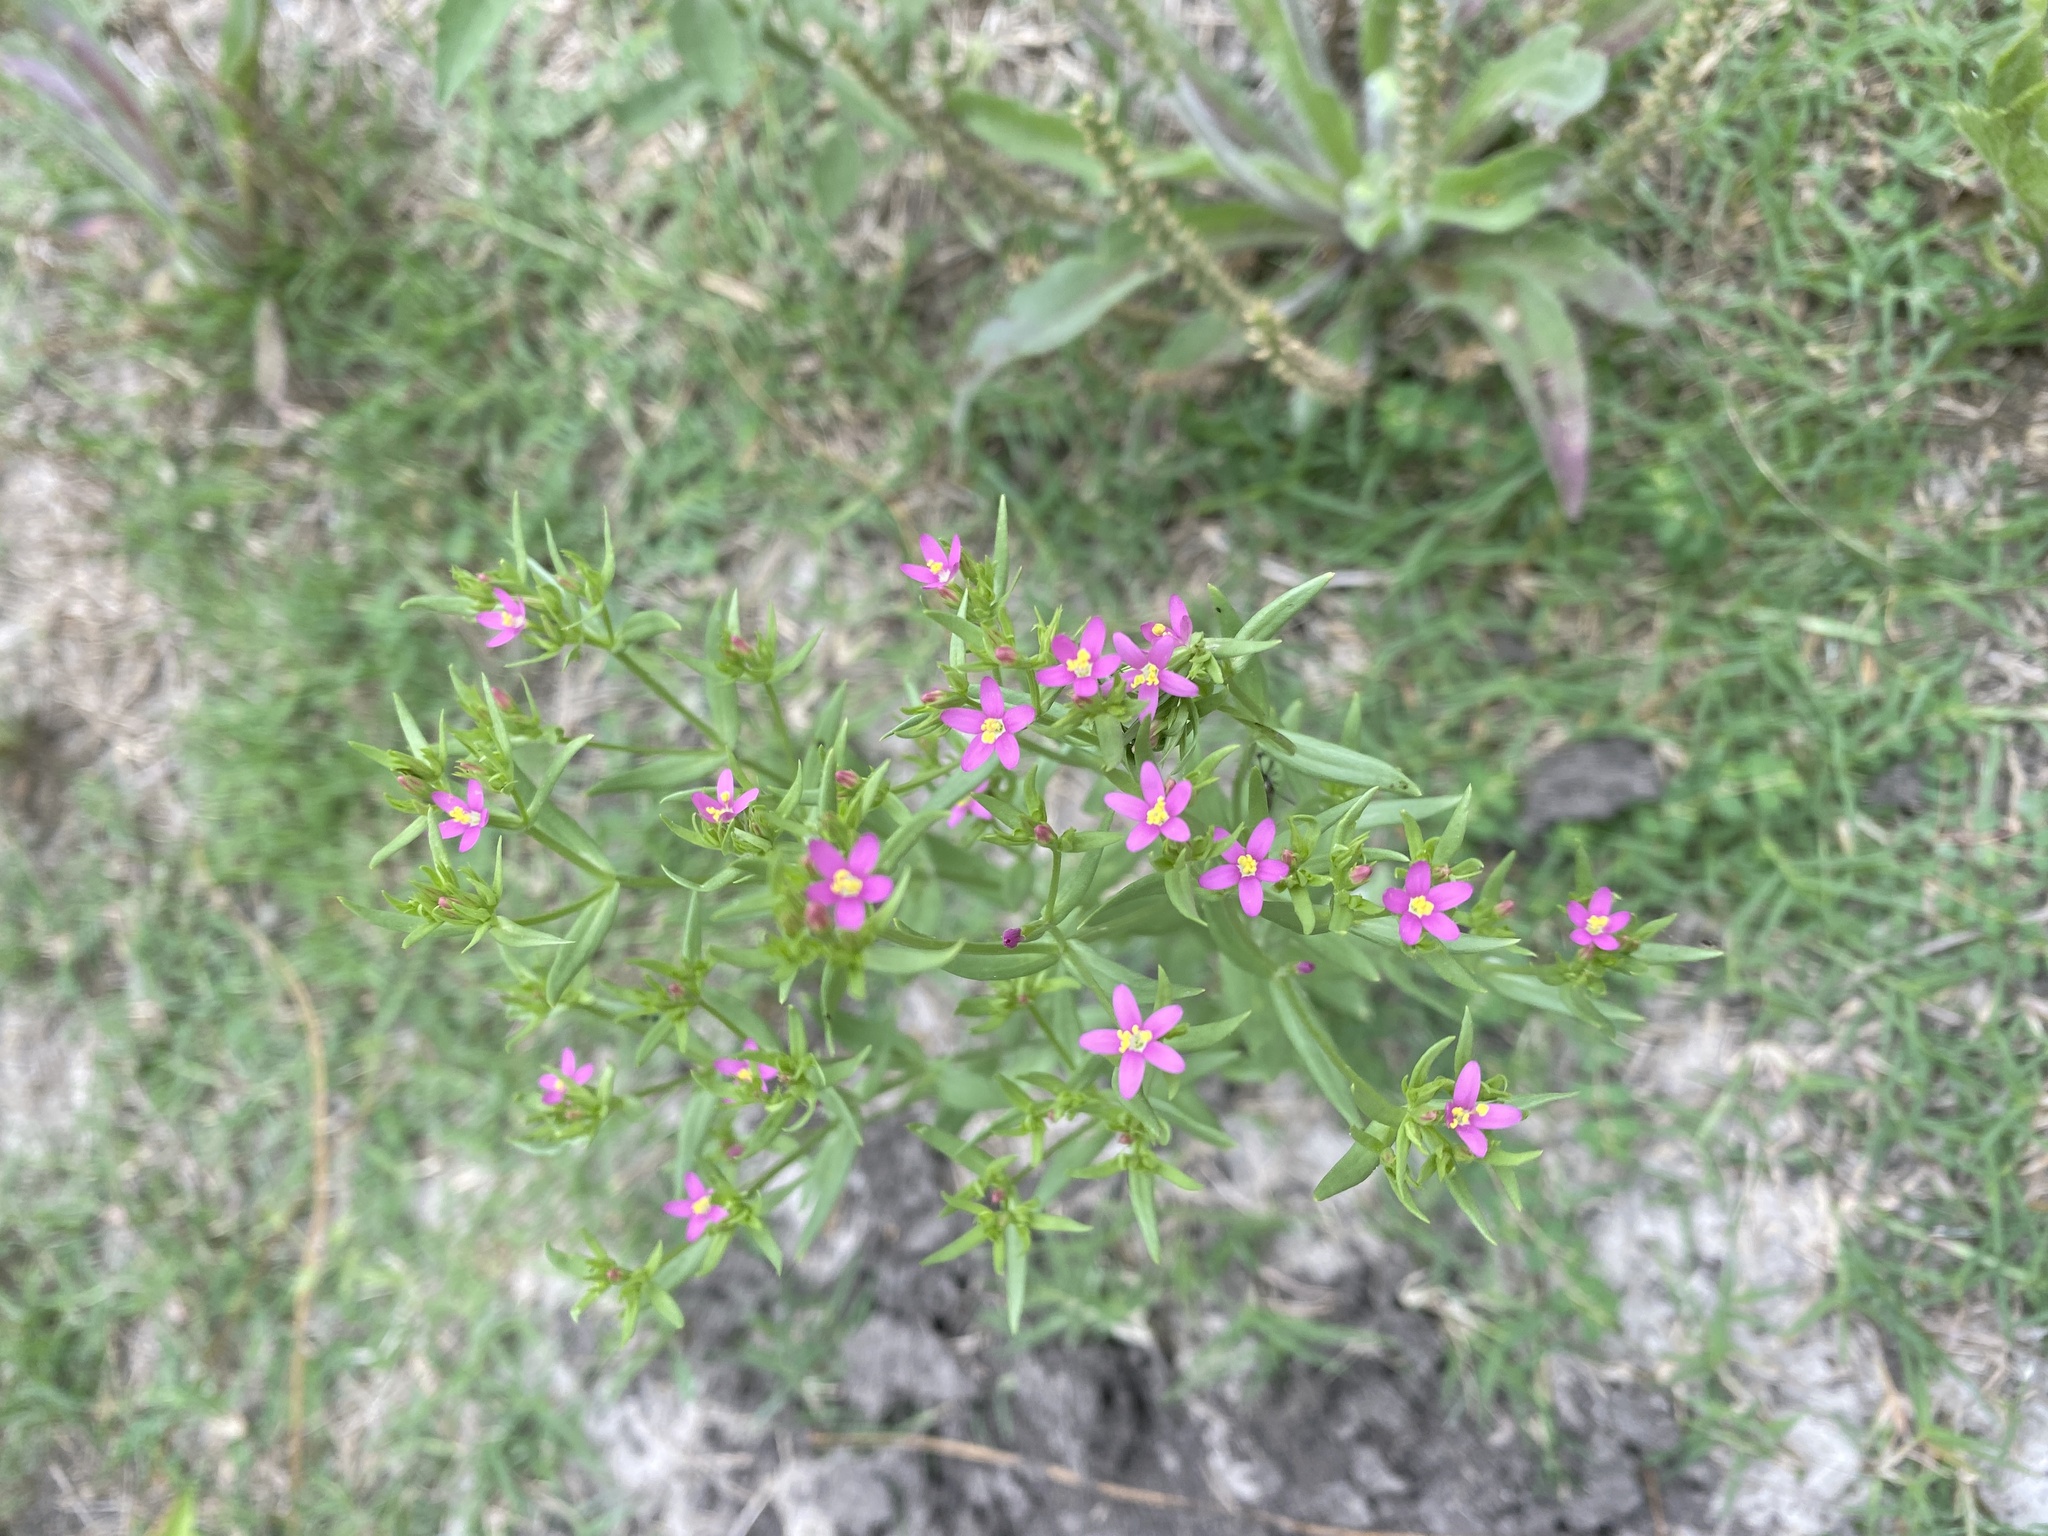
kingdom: Plantae
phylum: Tracheophyta
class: Magnoliopsida
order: Gentianales
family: Gentianaceae
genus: Centaurium
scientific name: Centaurium pulchellum
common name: Lesser centaury
